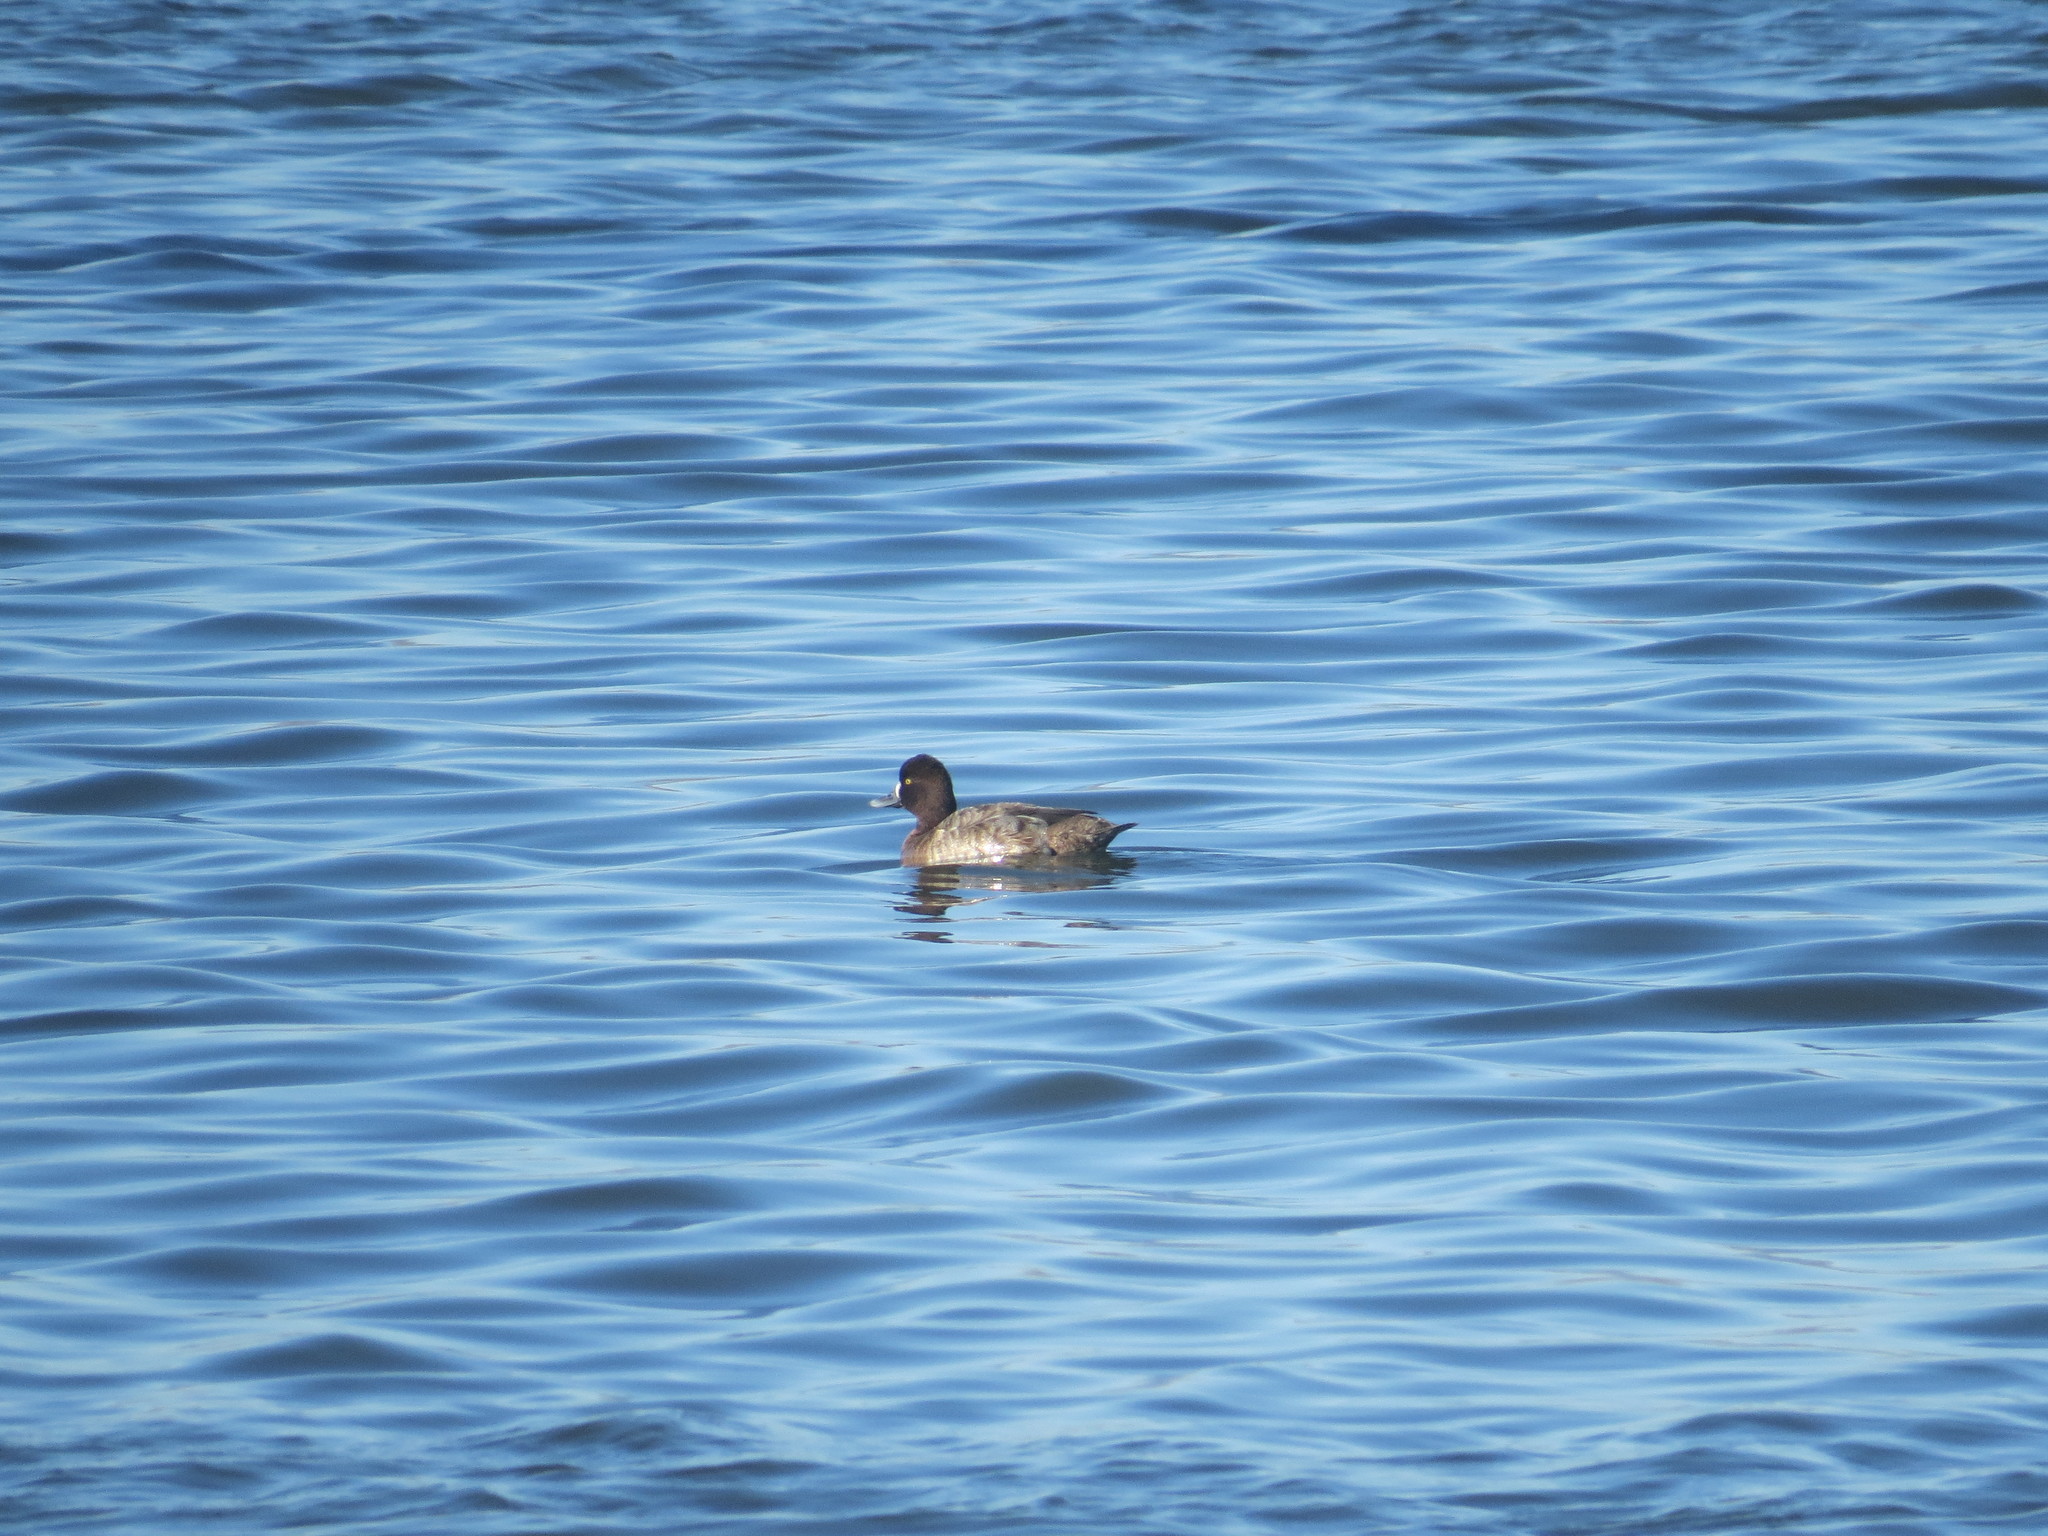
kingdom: Animalia
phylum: Chordata
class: Aves
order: Anseriformes
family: Anatidae
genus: Aythya
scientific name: Aythya affinis
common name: Lesser scaup
